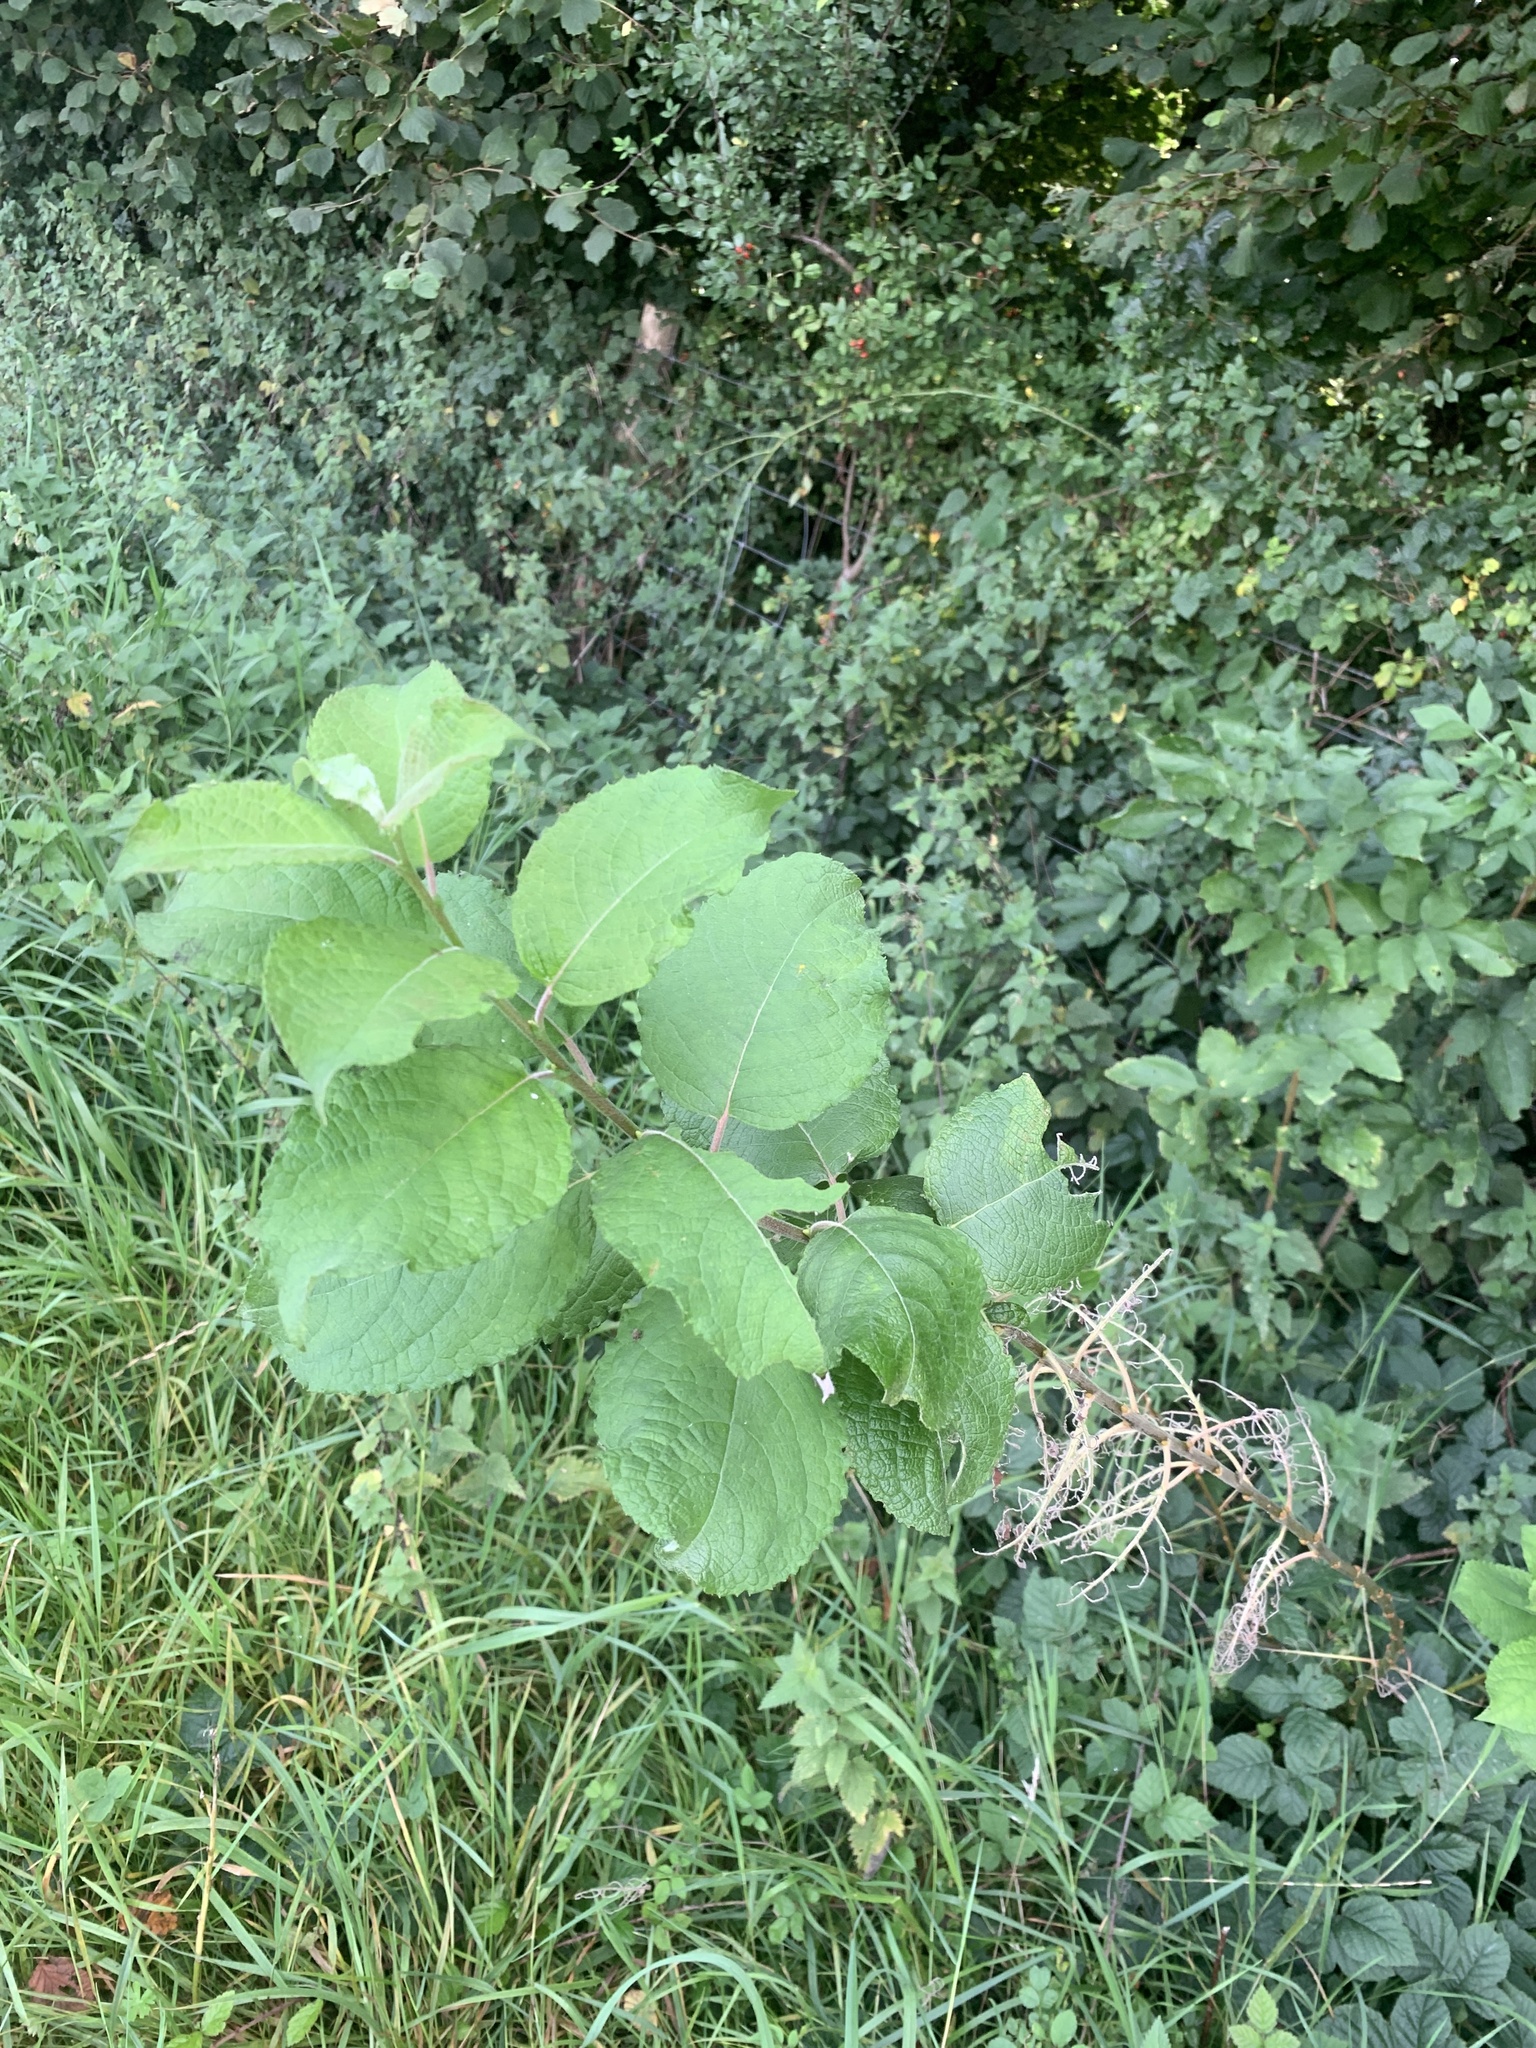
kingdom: Plantae
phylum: Tracheophyta
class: Magnoliopsida
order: Malpighiales
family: Salicaceae
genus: Salix
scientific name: Salix caprea
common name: Goat willow
